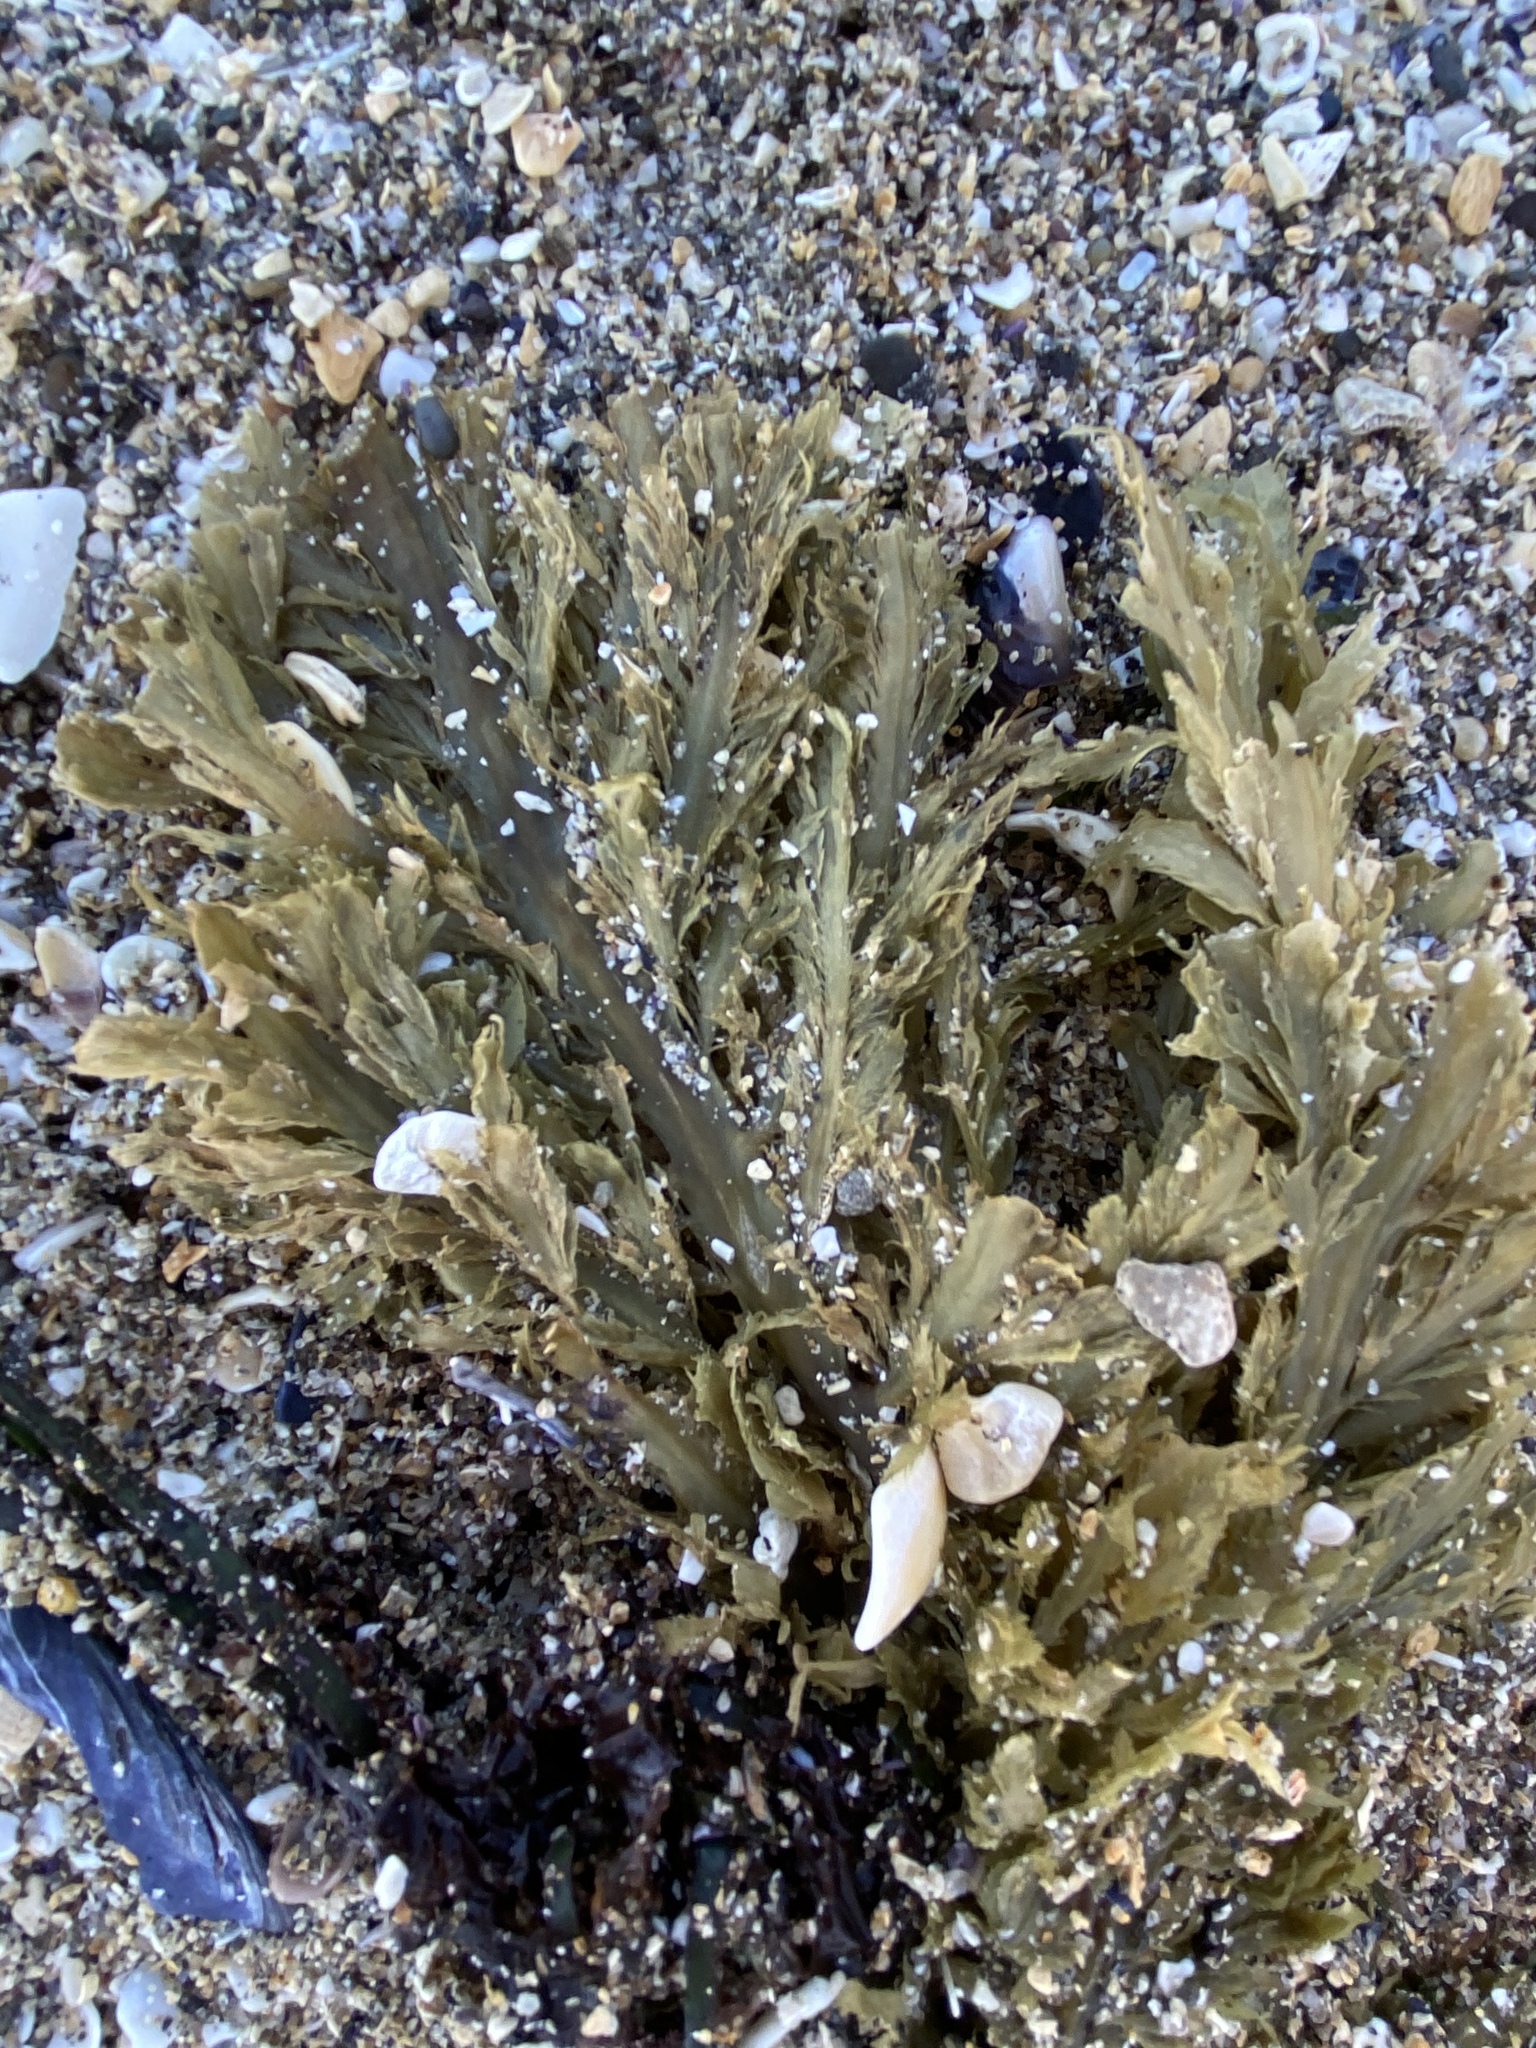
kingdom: Chromista
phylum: Ochrophyta
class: Phaeophyceae
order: Desmarestiales
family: Desmarestiaceae
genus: Desmarestia
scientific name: Desmarestia ligulata
